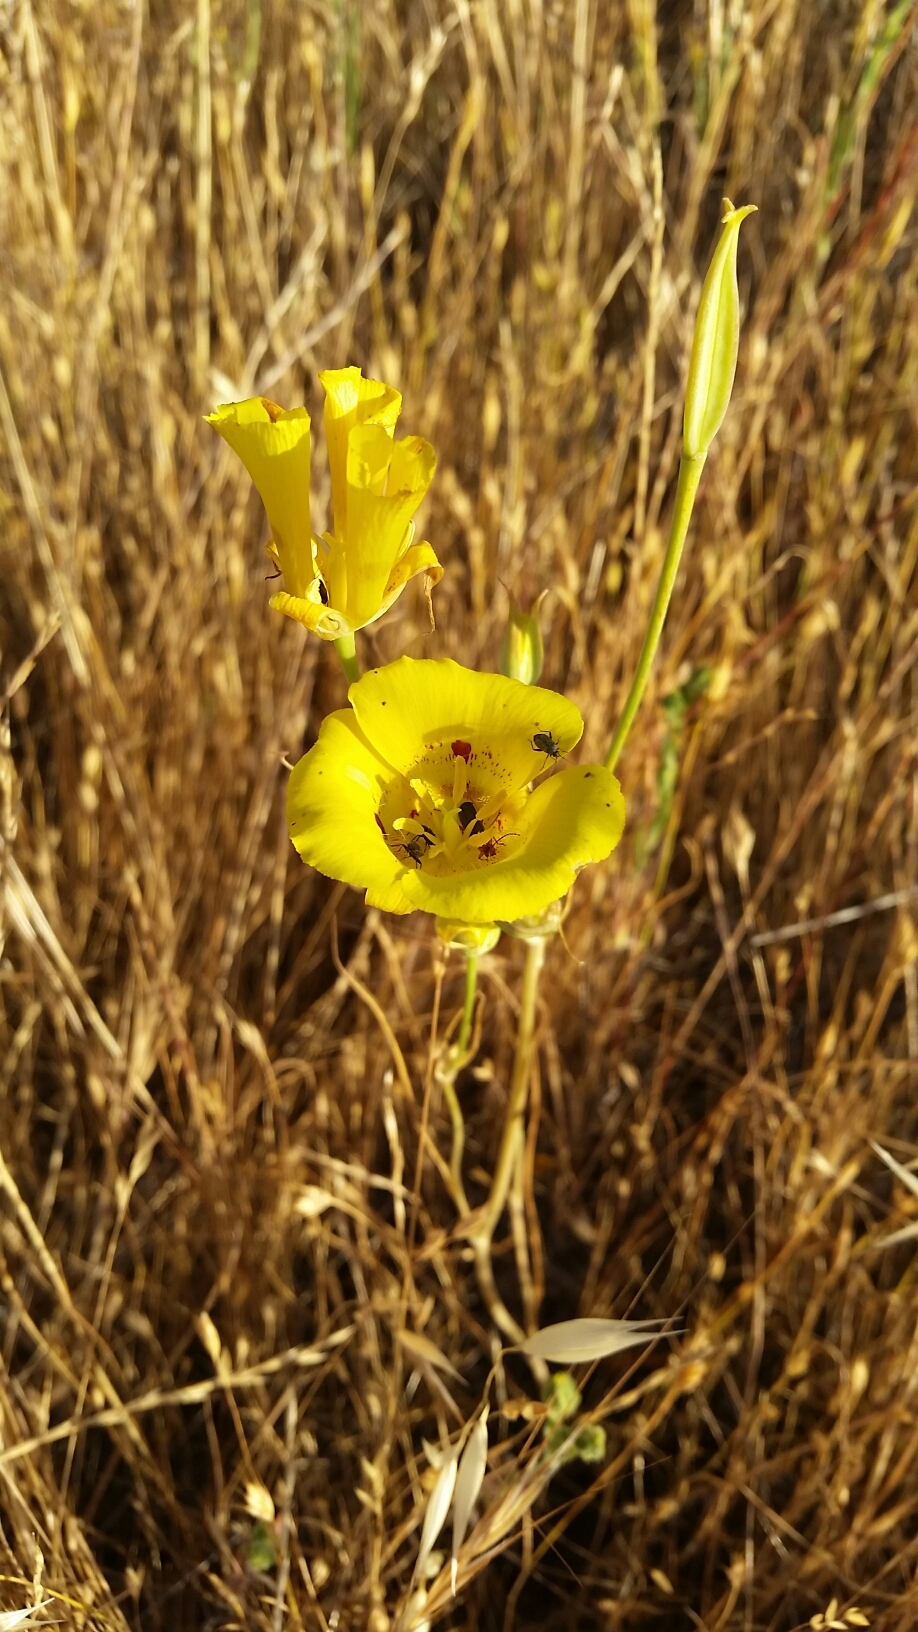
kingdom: Plantae
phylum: Tracheophyta
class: Liliopsida
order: Liliales
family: Liliaceae
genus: Calochortus
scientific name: Calochortus luteus
